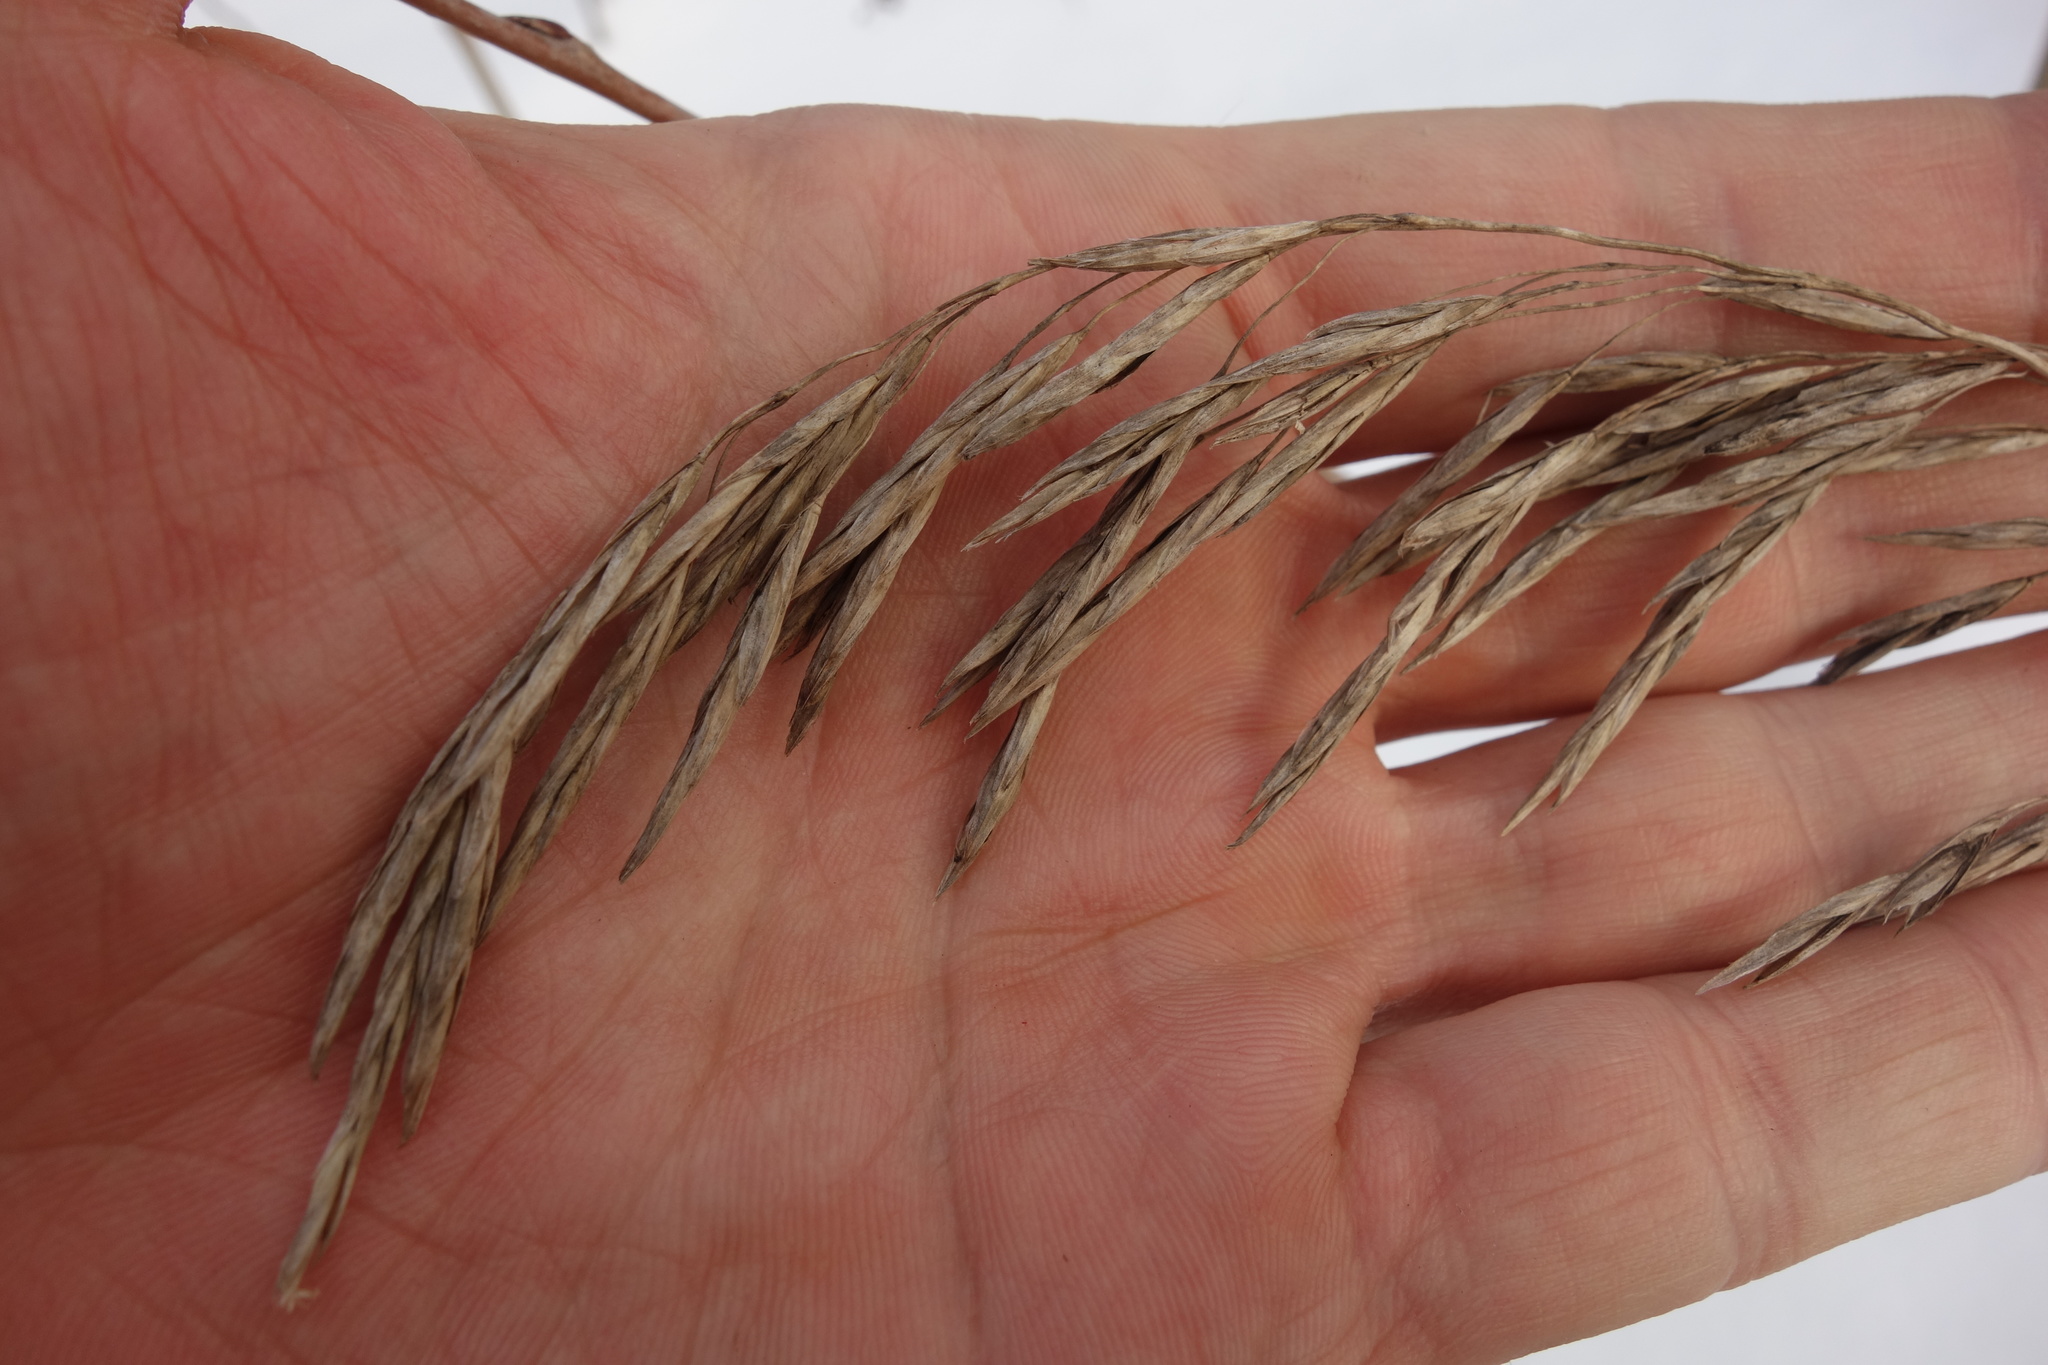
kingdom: Plantae
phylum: Tracheophyta
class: Liliopsida
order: Poales
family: Poaceae
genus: Bromus
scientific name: Bromus inermis
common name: Smooth brome
